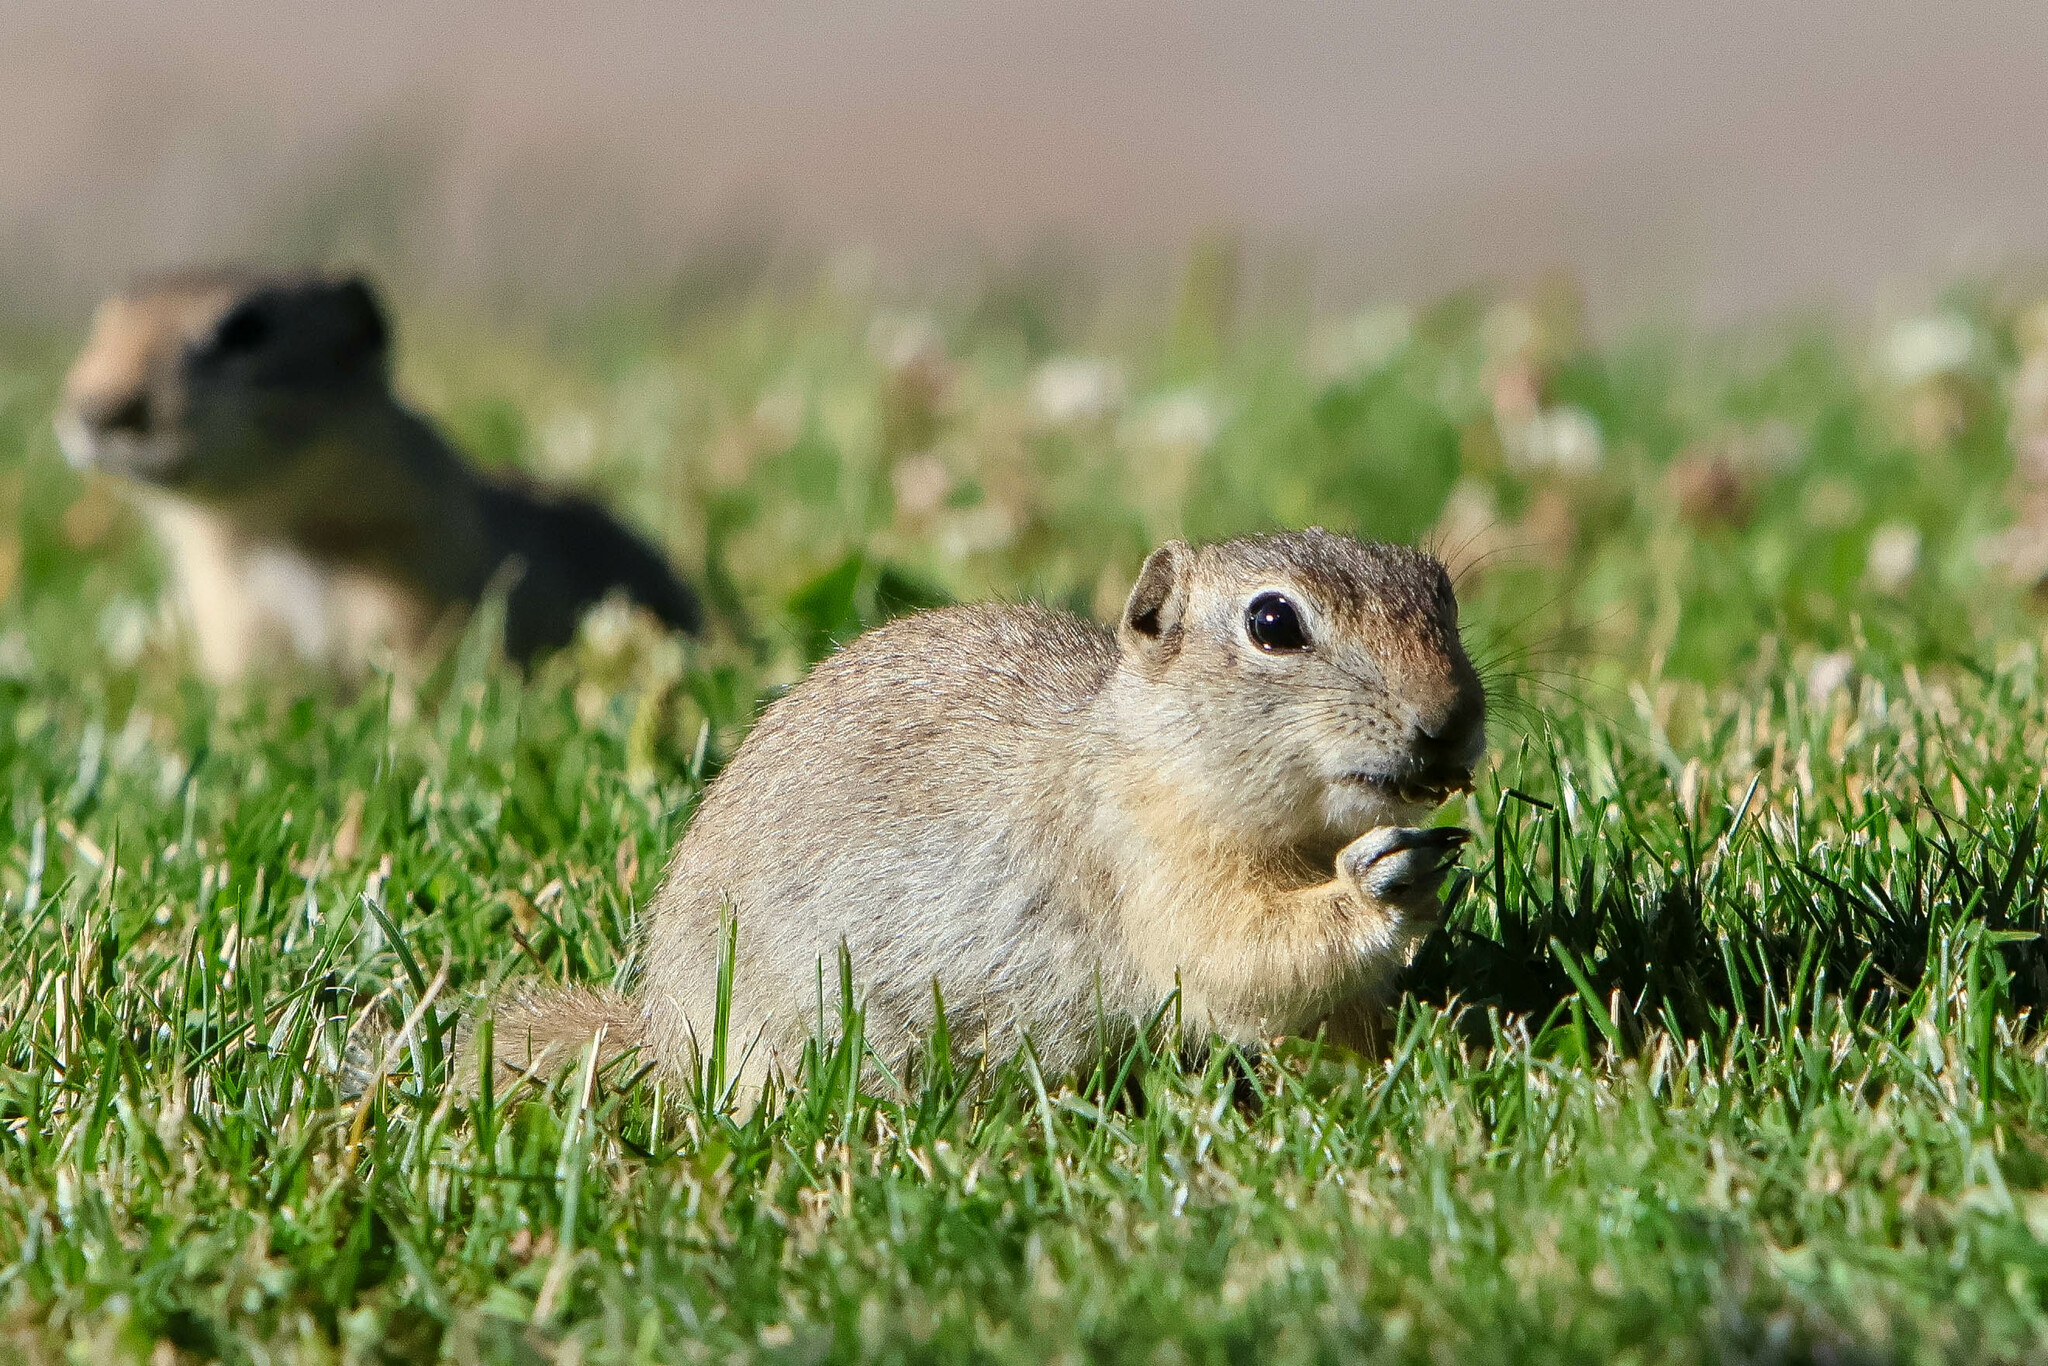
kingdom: Animalia
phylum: Chordata
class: Mammalia
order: Rodentia
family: Sciuridae
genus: Urocitellus
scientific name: Urocitellus elegans
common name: Wyoming ground squirrel
